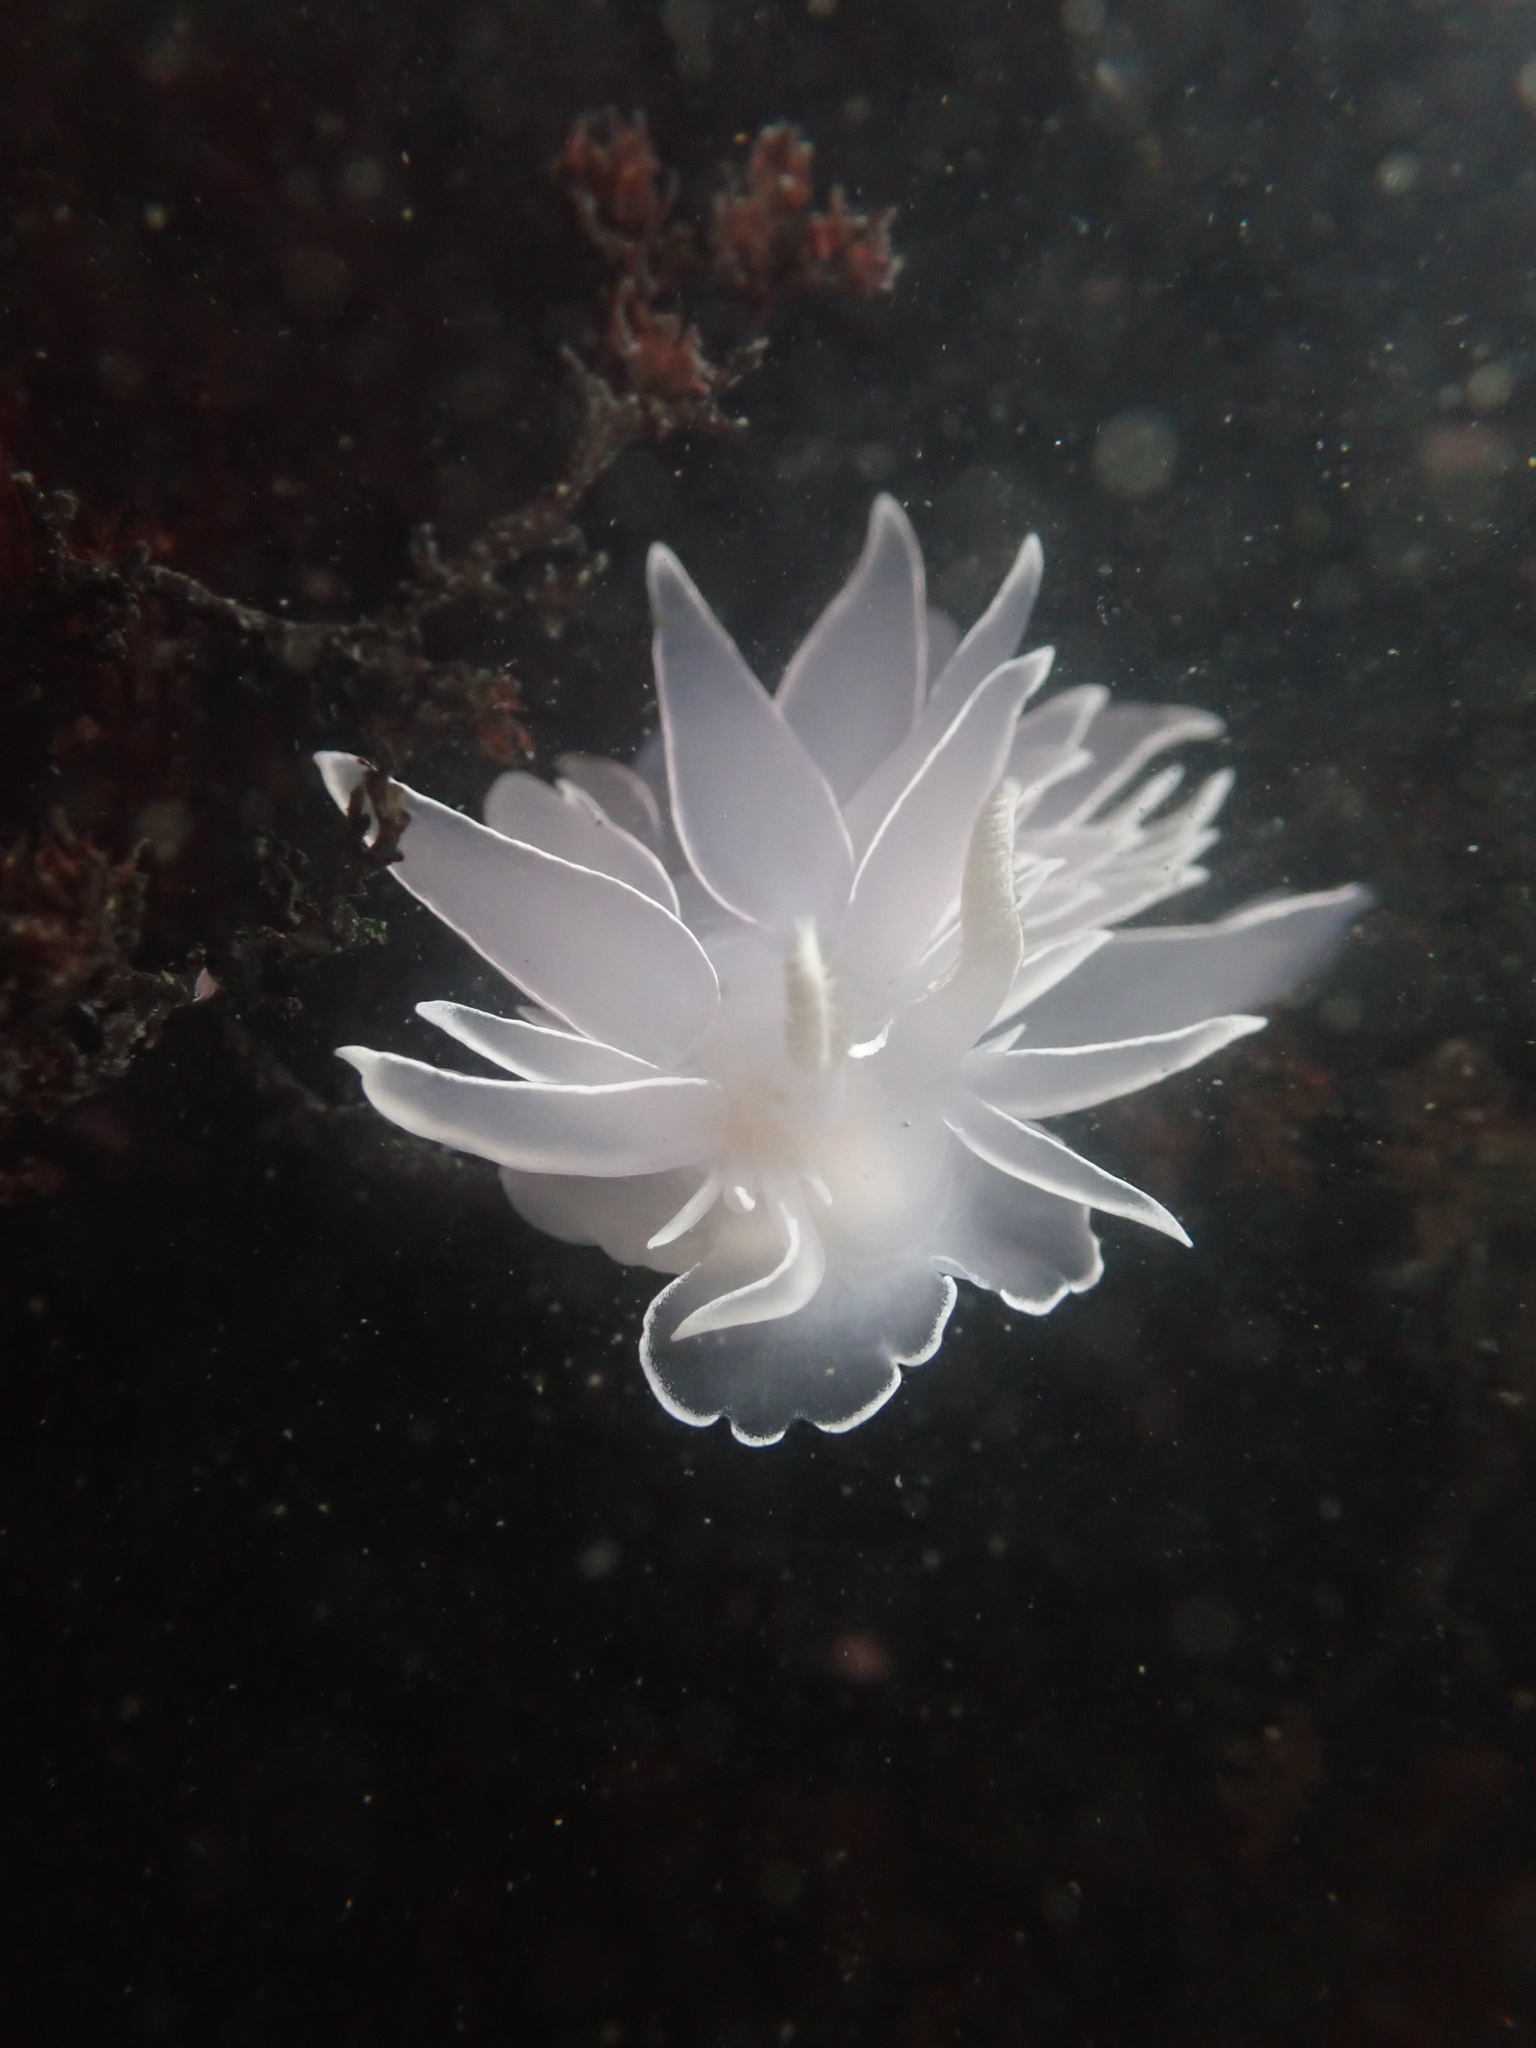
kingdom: Animalia
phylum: Mollusca
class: Gastropoda
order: Nudibranchia
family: Dironidae
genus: Dirona
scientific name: Dirona albolineata
